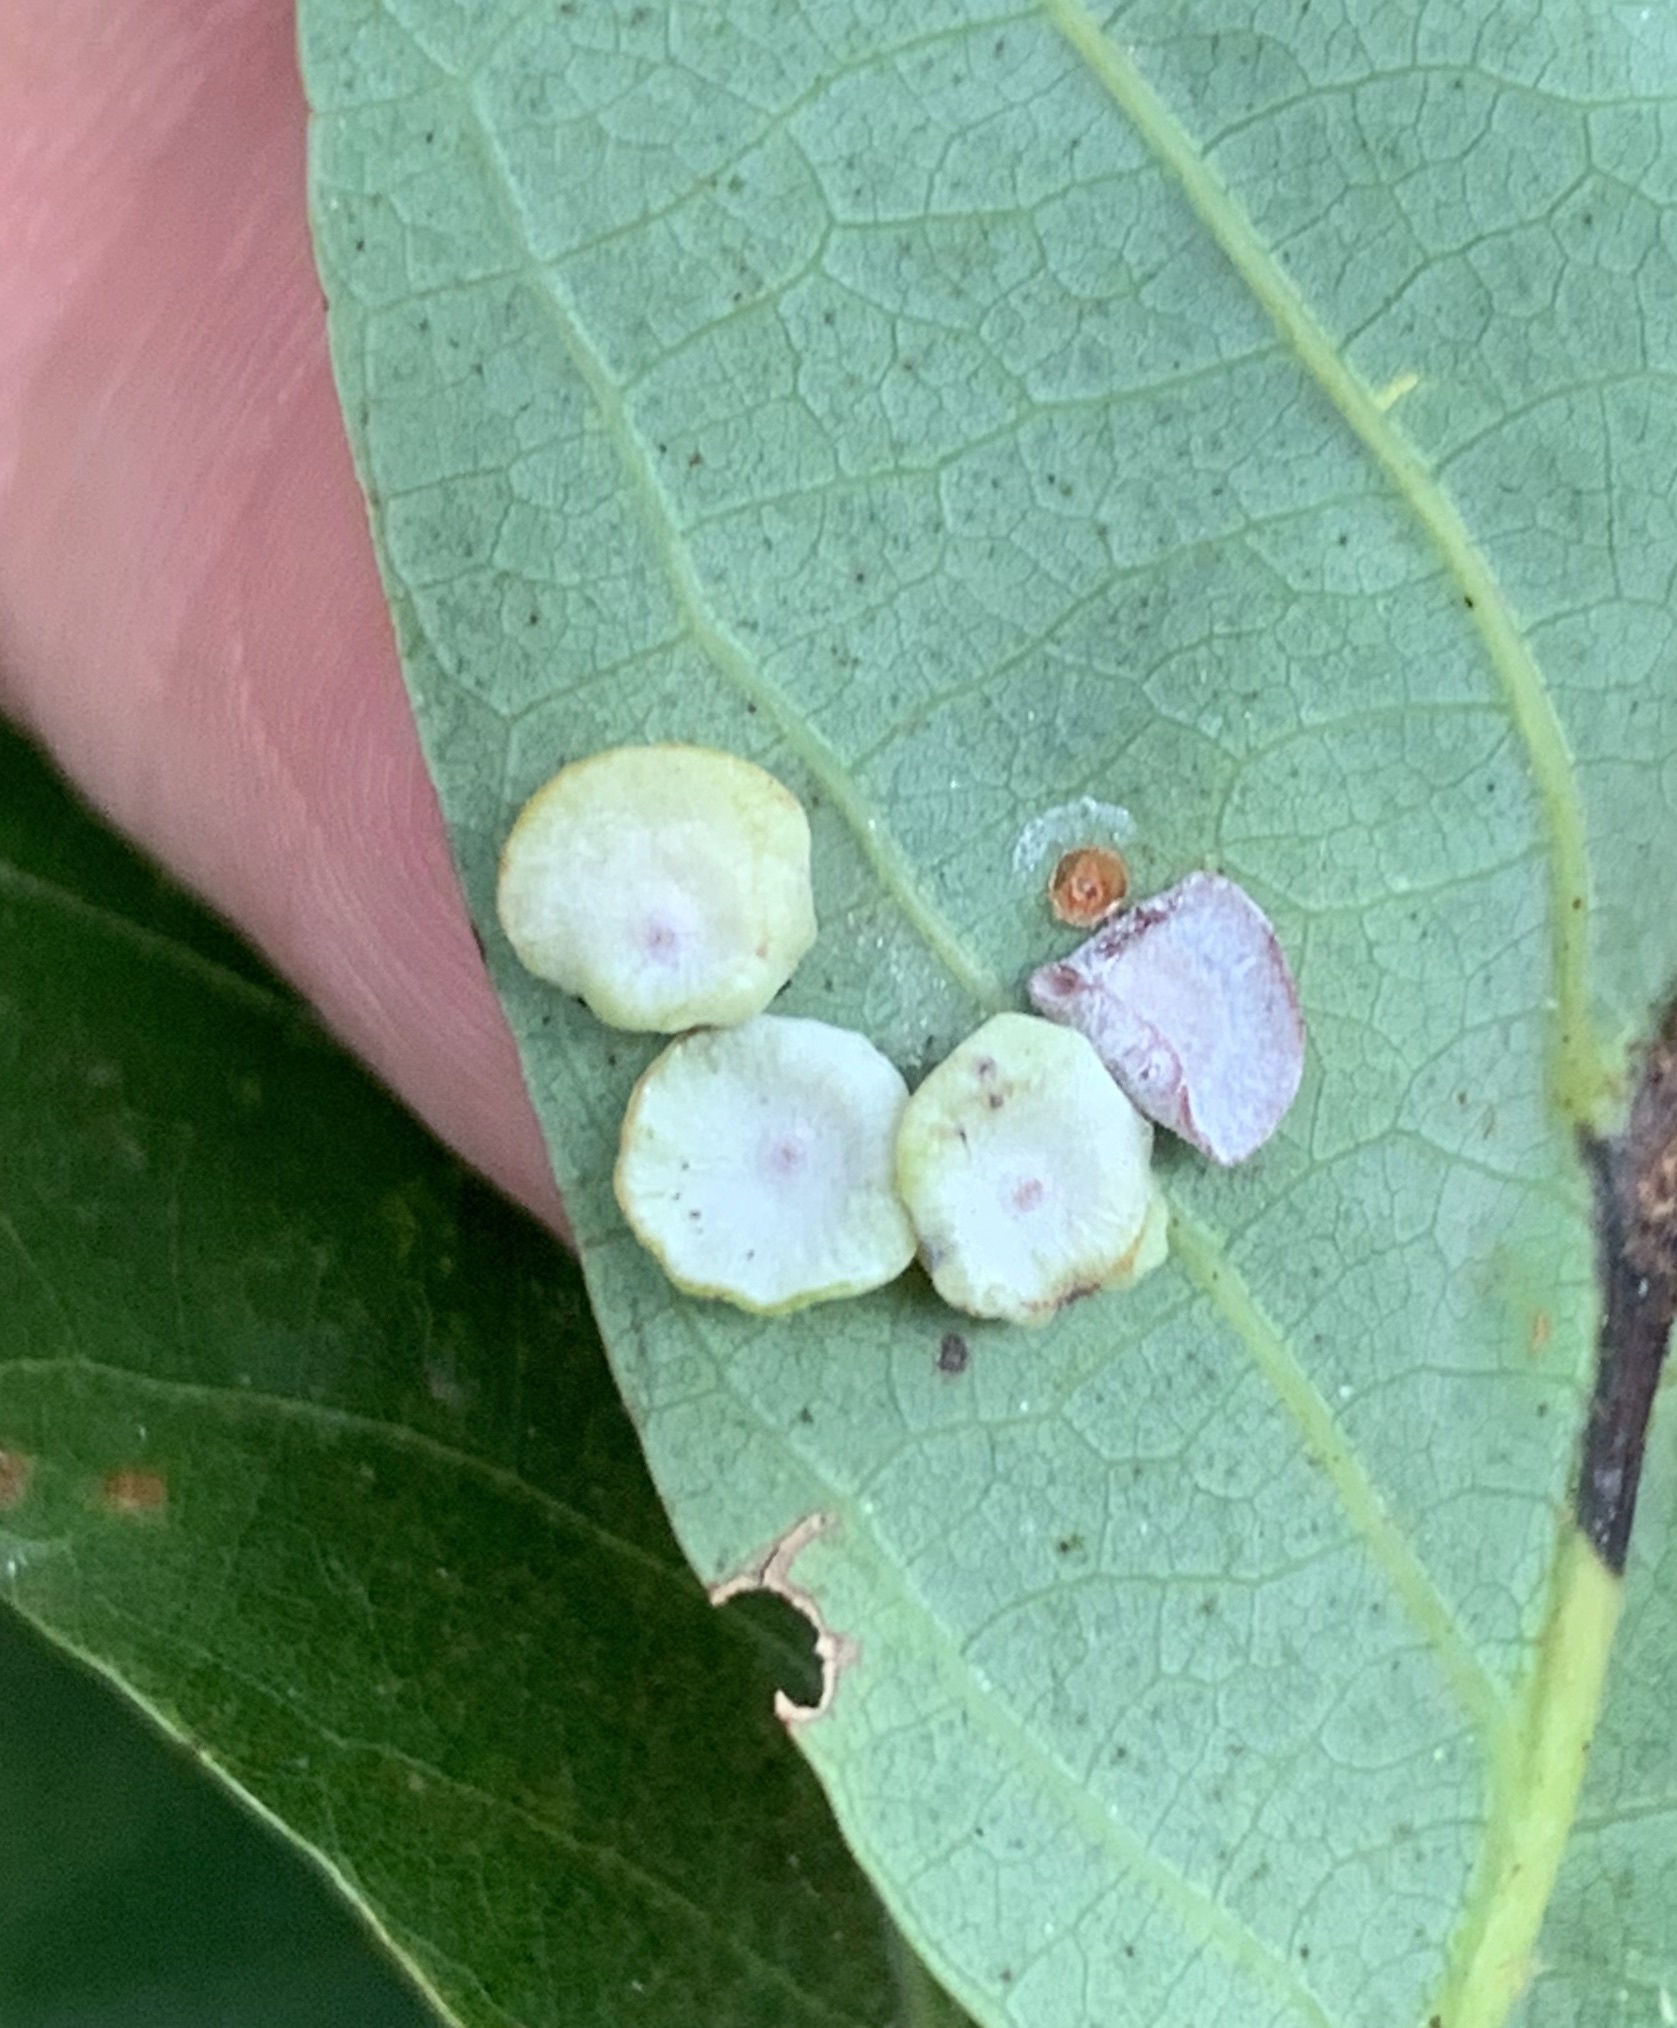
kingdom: Animalia
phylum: Arthropoda
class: Insecta
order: Hymenoptera
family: Cynipidae
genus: Phylloteras
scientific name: Phylloteras poculum
